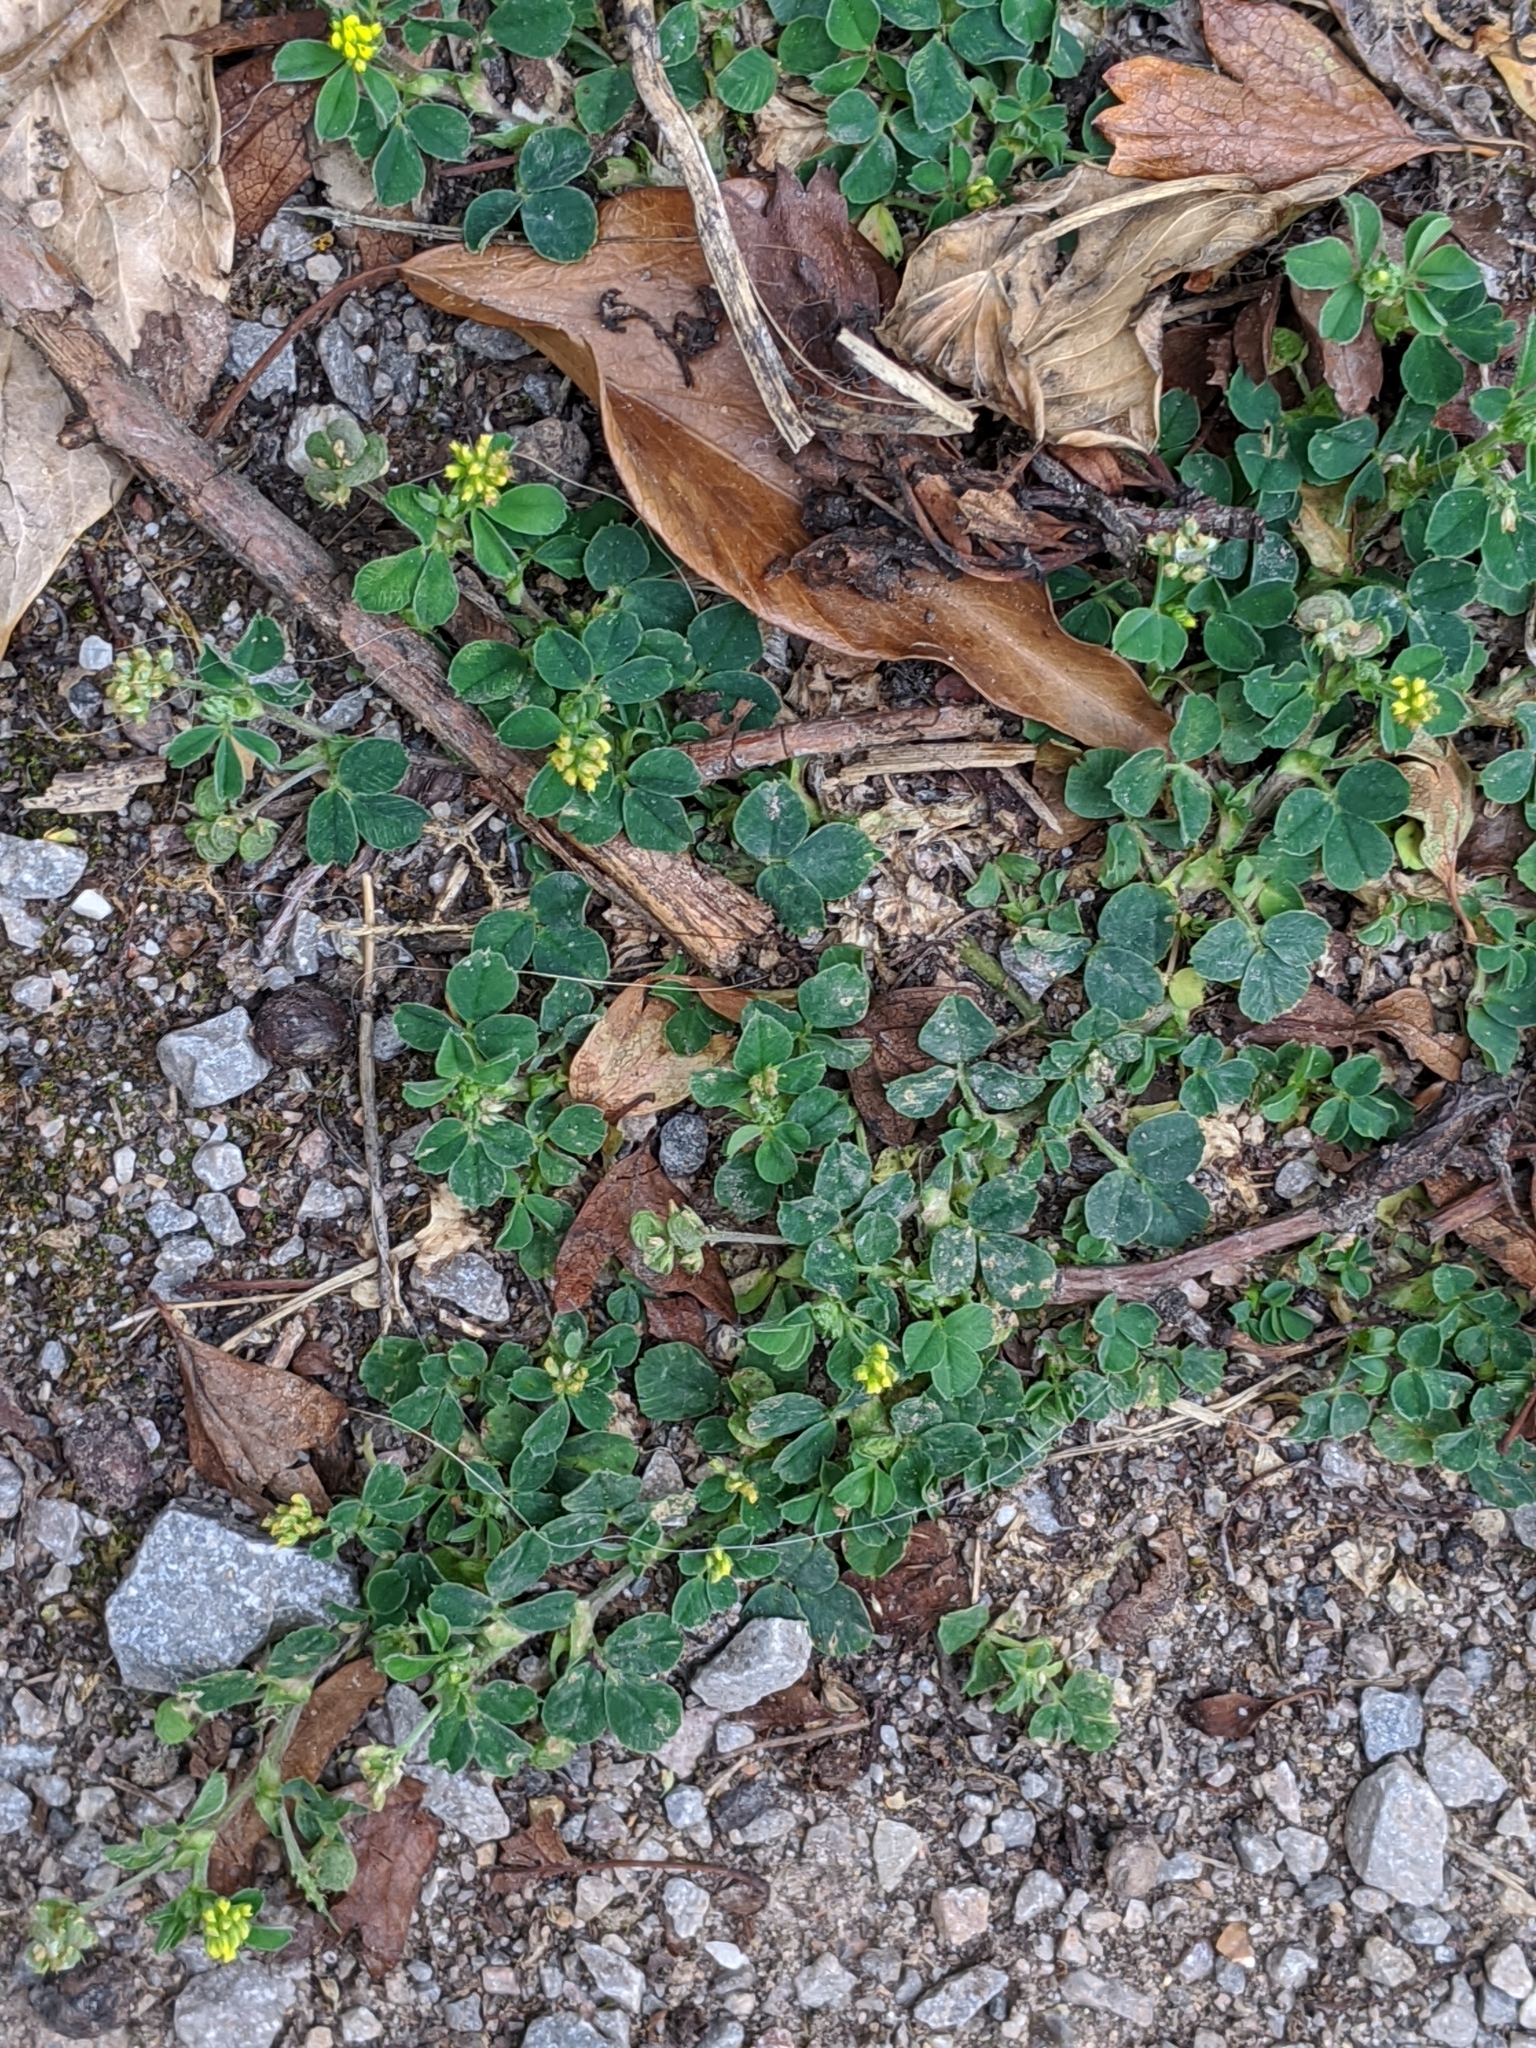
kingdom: Plantae
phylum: Tracheophyta
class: Magnoliopsida
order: Fabales
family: Fabaceae
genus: Medicago
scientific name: Medicago lupulina
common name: Black medick
